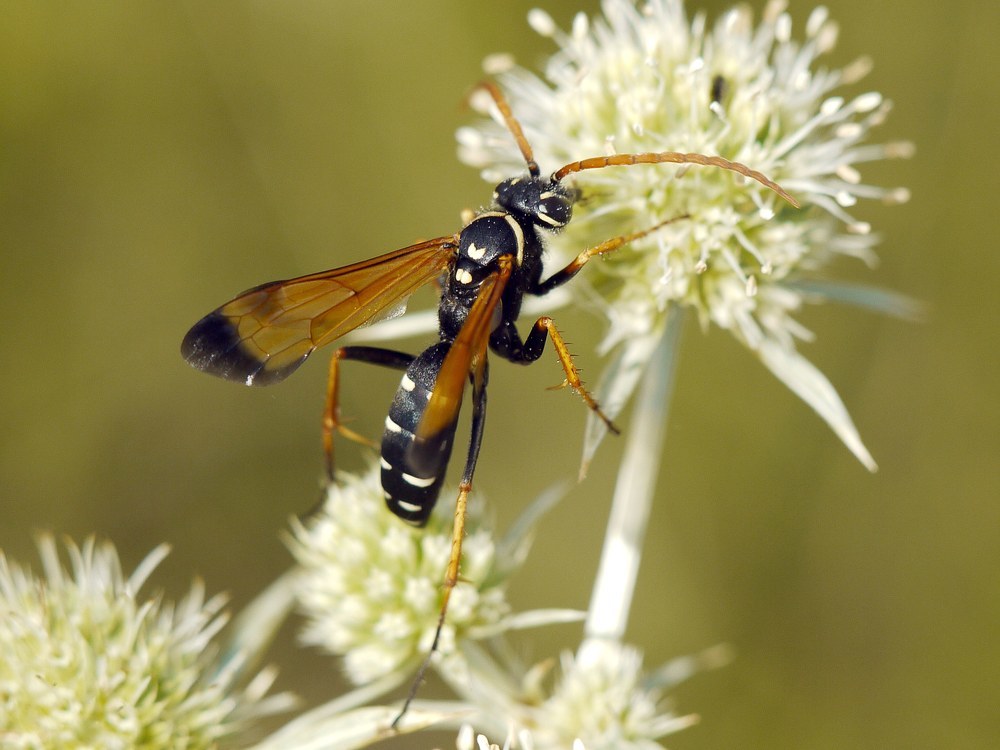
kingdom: Animalia
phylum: Arthropoda
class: Insecta
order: Hymenoptera
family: Pompilidae
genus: Parabatozonus
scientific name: Parabatozonus lacerticida
